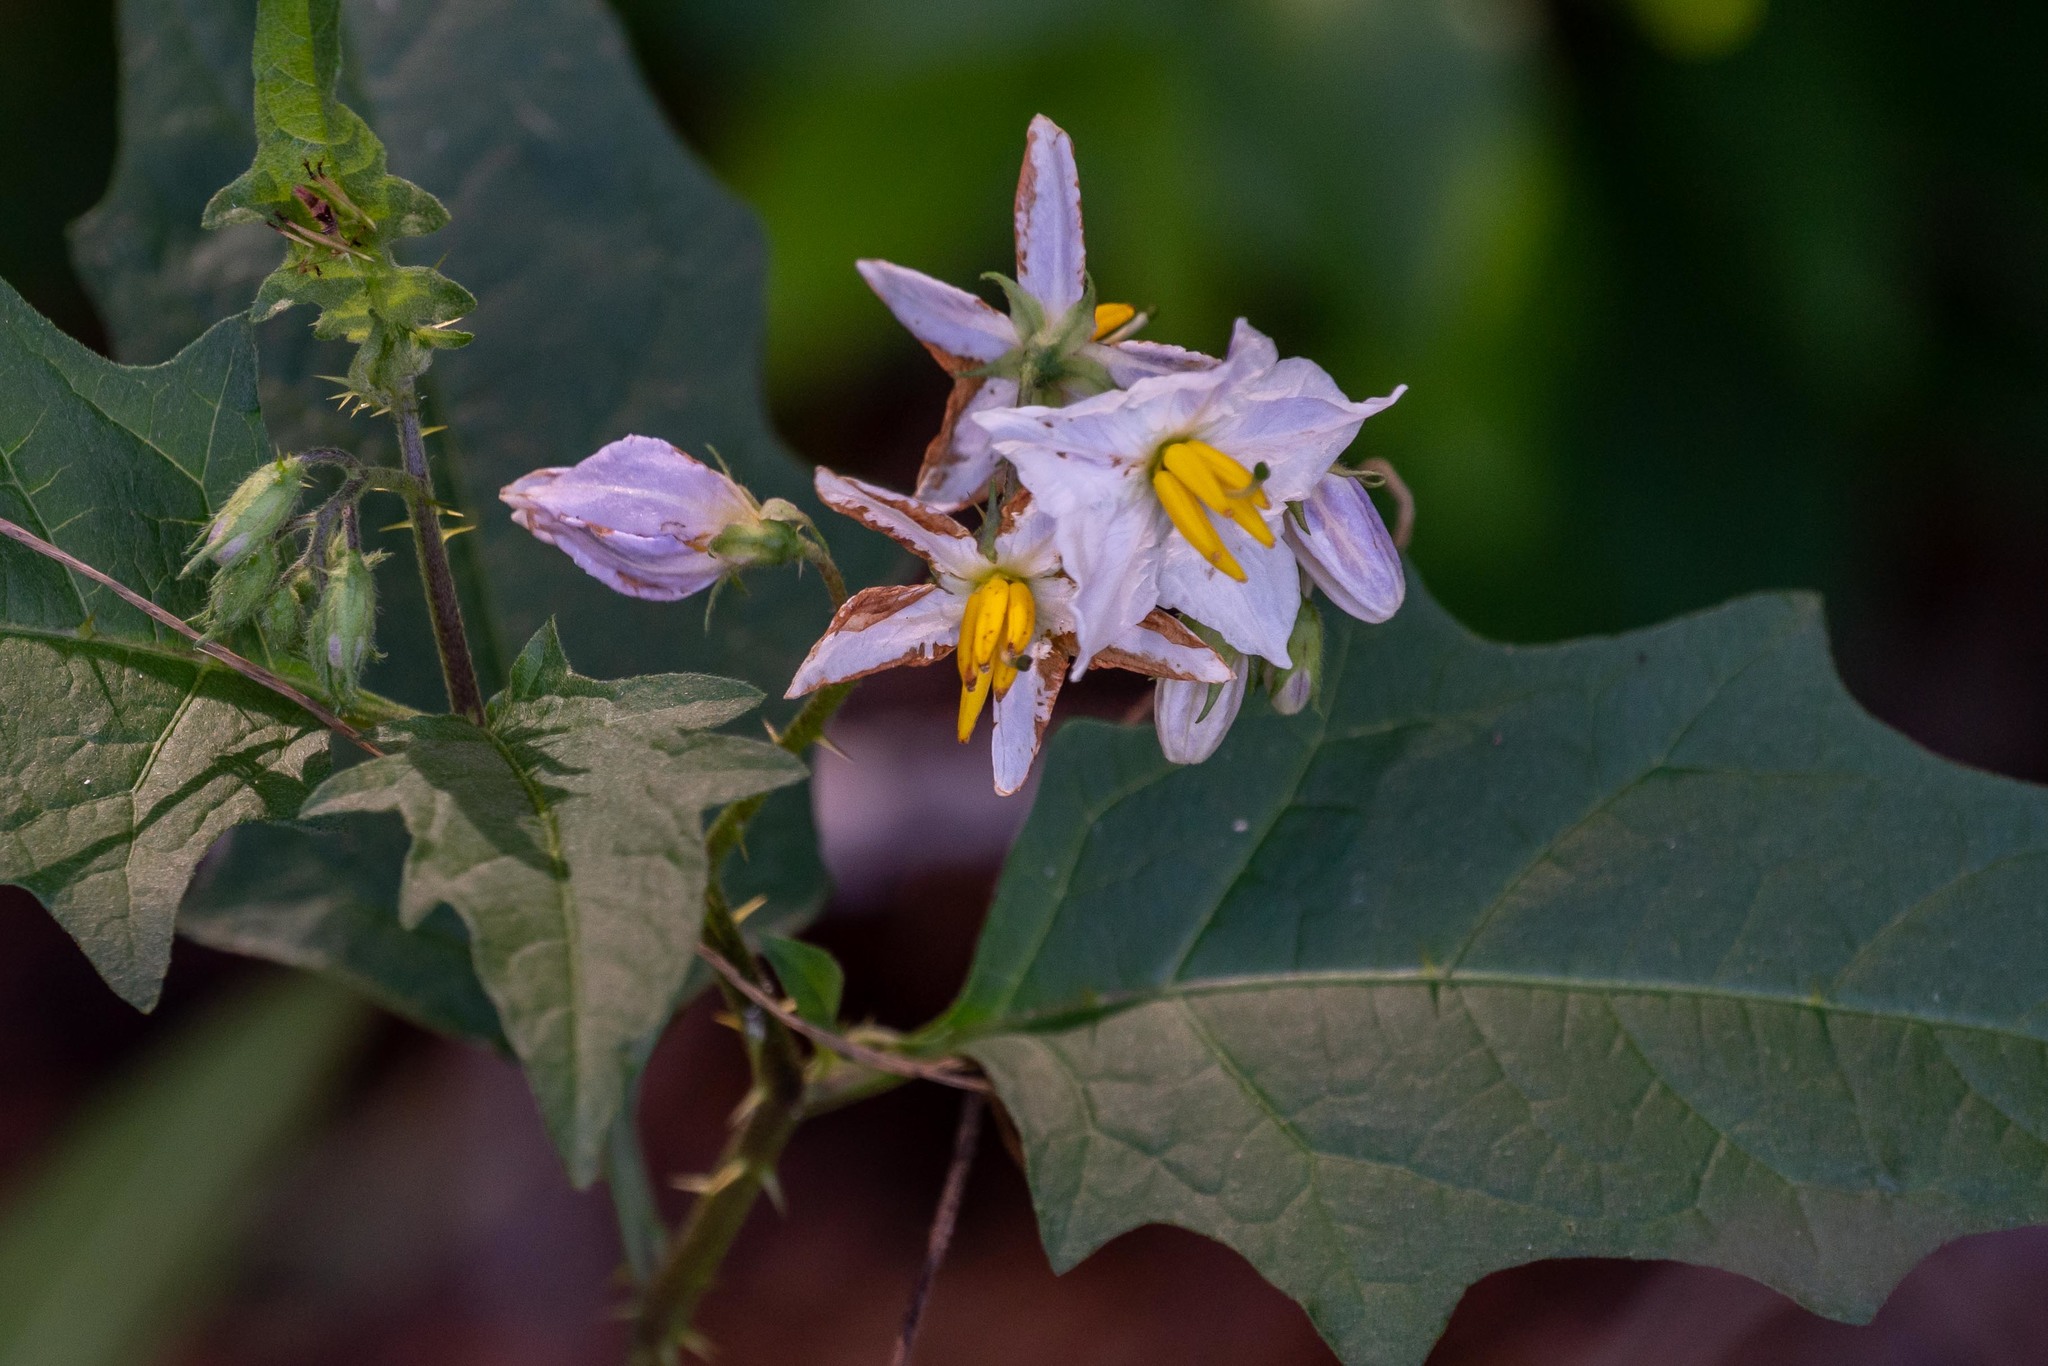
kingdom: Plantae
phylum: Tracheophyta
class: Magnoliopsida
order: Solanales
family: Solanaceae
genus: Solanum
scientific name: Solanum carolinense
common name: Horse-nettle
